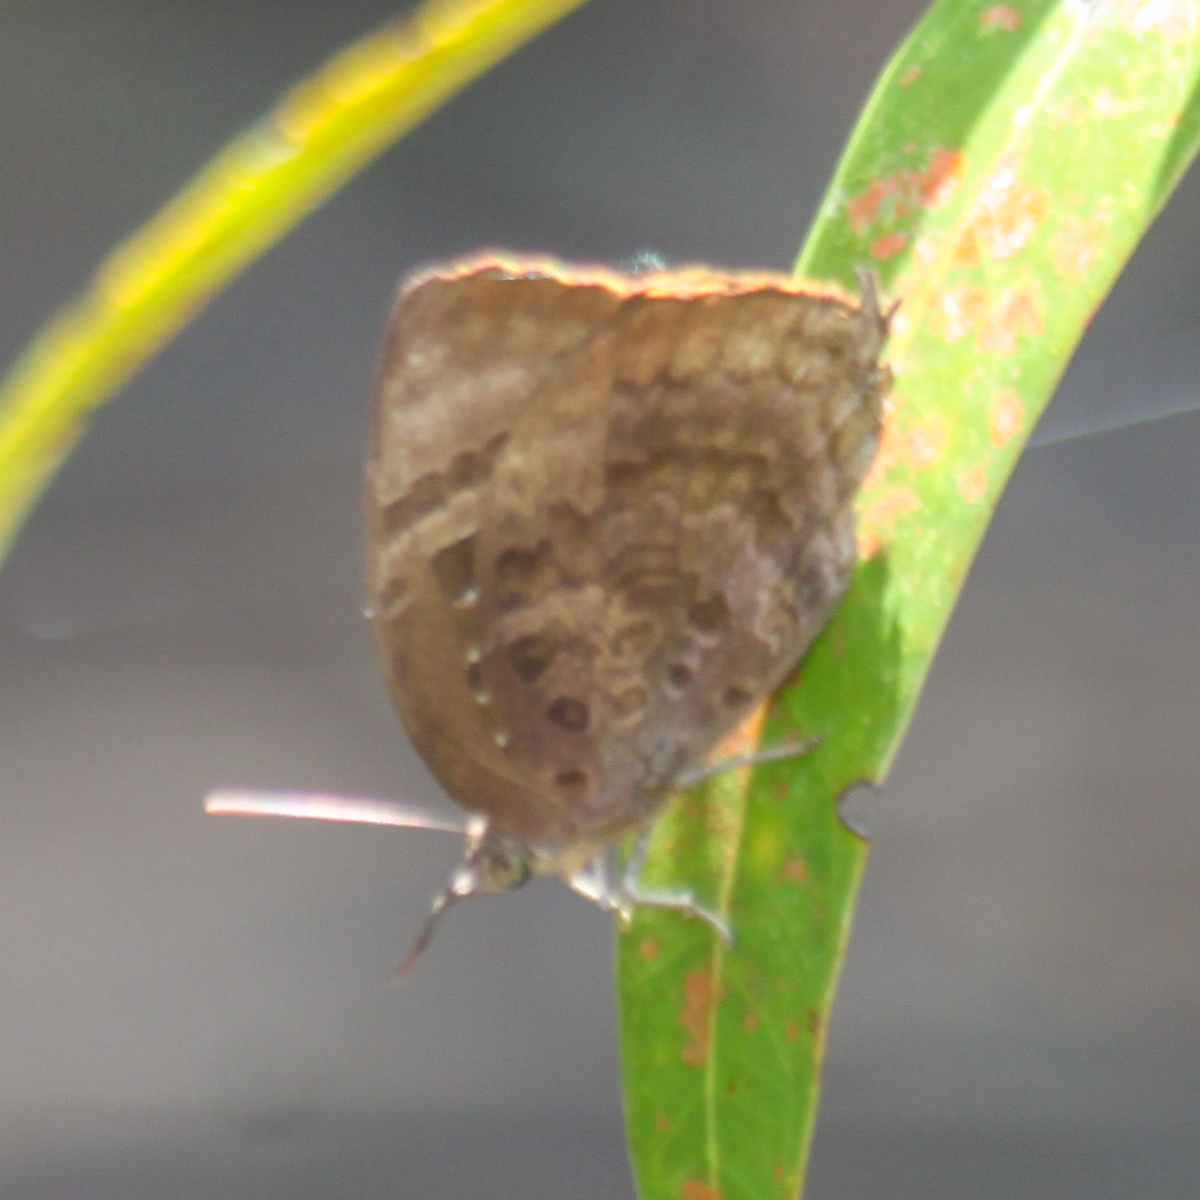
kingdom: Animalia
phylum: Arthropoda
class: Insecta
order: Lepidoptera
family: Lycaenidae
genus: Arhopala
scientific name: Arhopala centaurus
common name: Dull oak-blue
